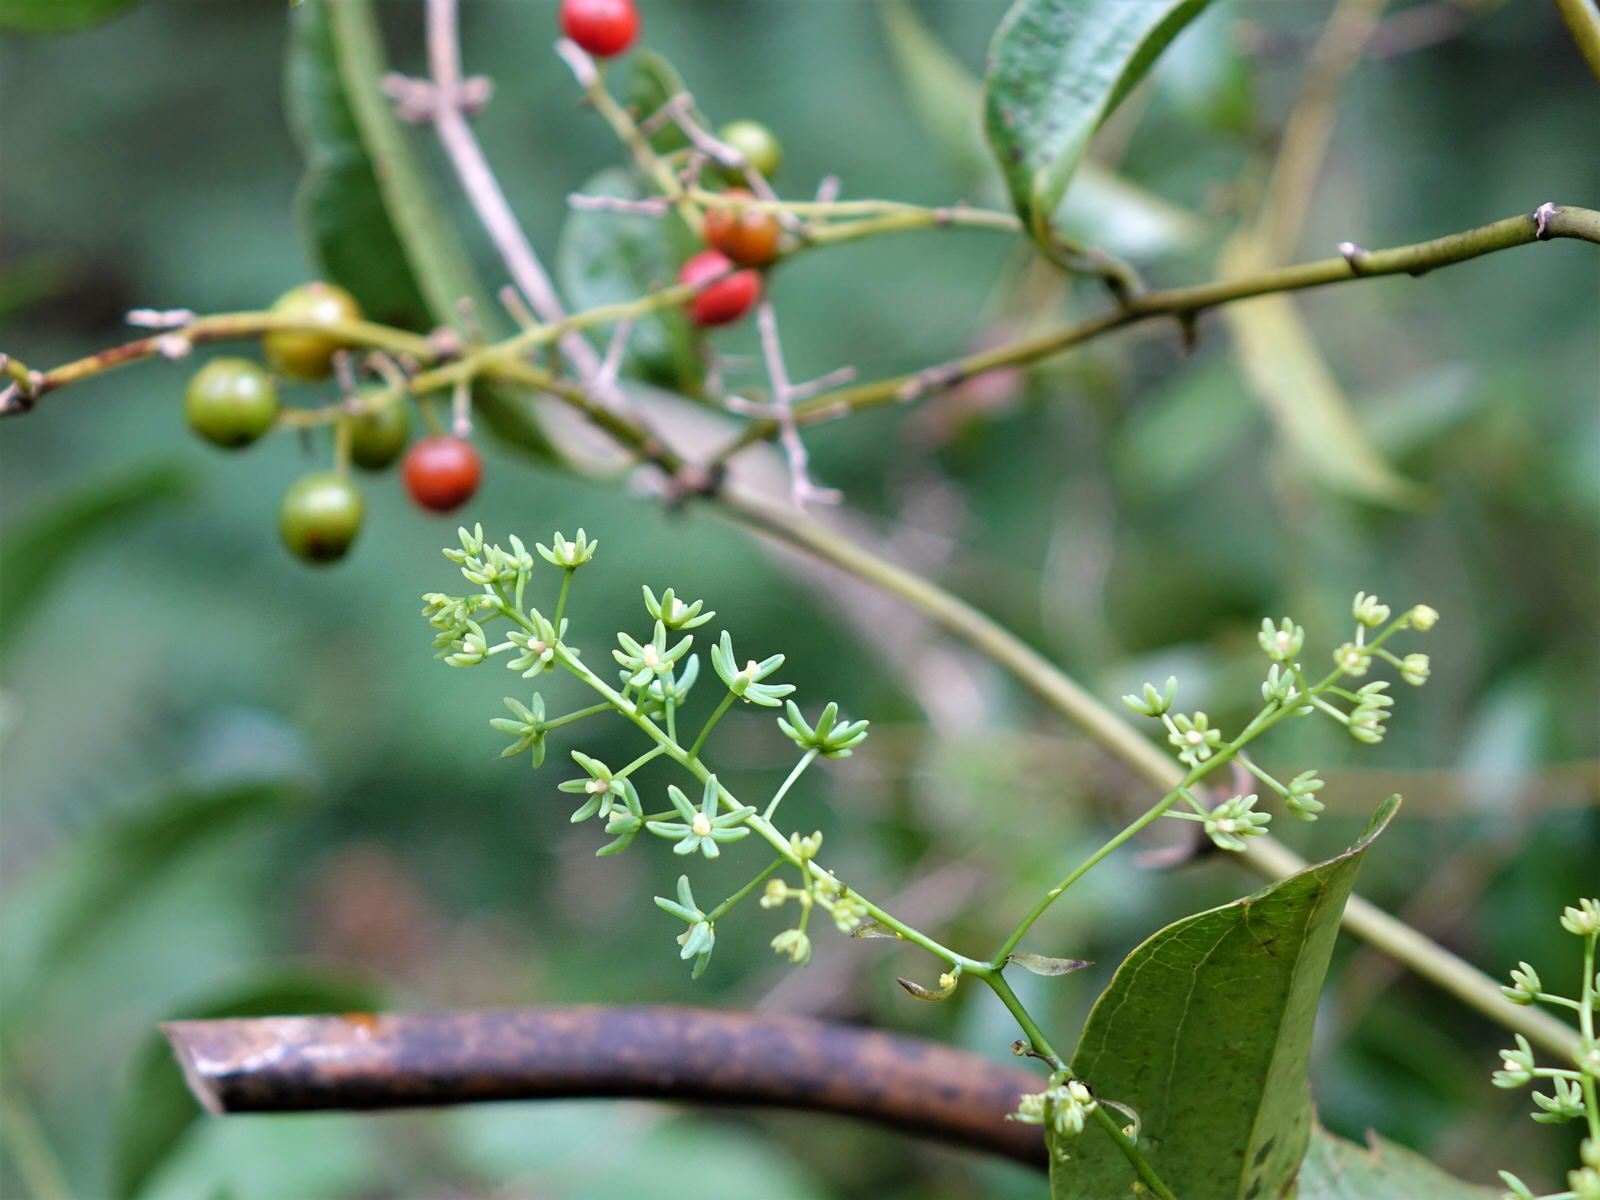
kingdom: Plantae
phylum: Tracheophyta
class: Liliopsida
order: Liliales
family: Ripogonaceae
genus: Ripogonum
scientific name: Ripogonum scandens
